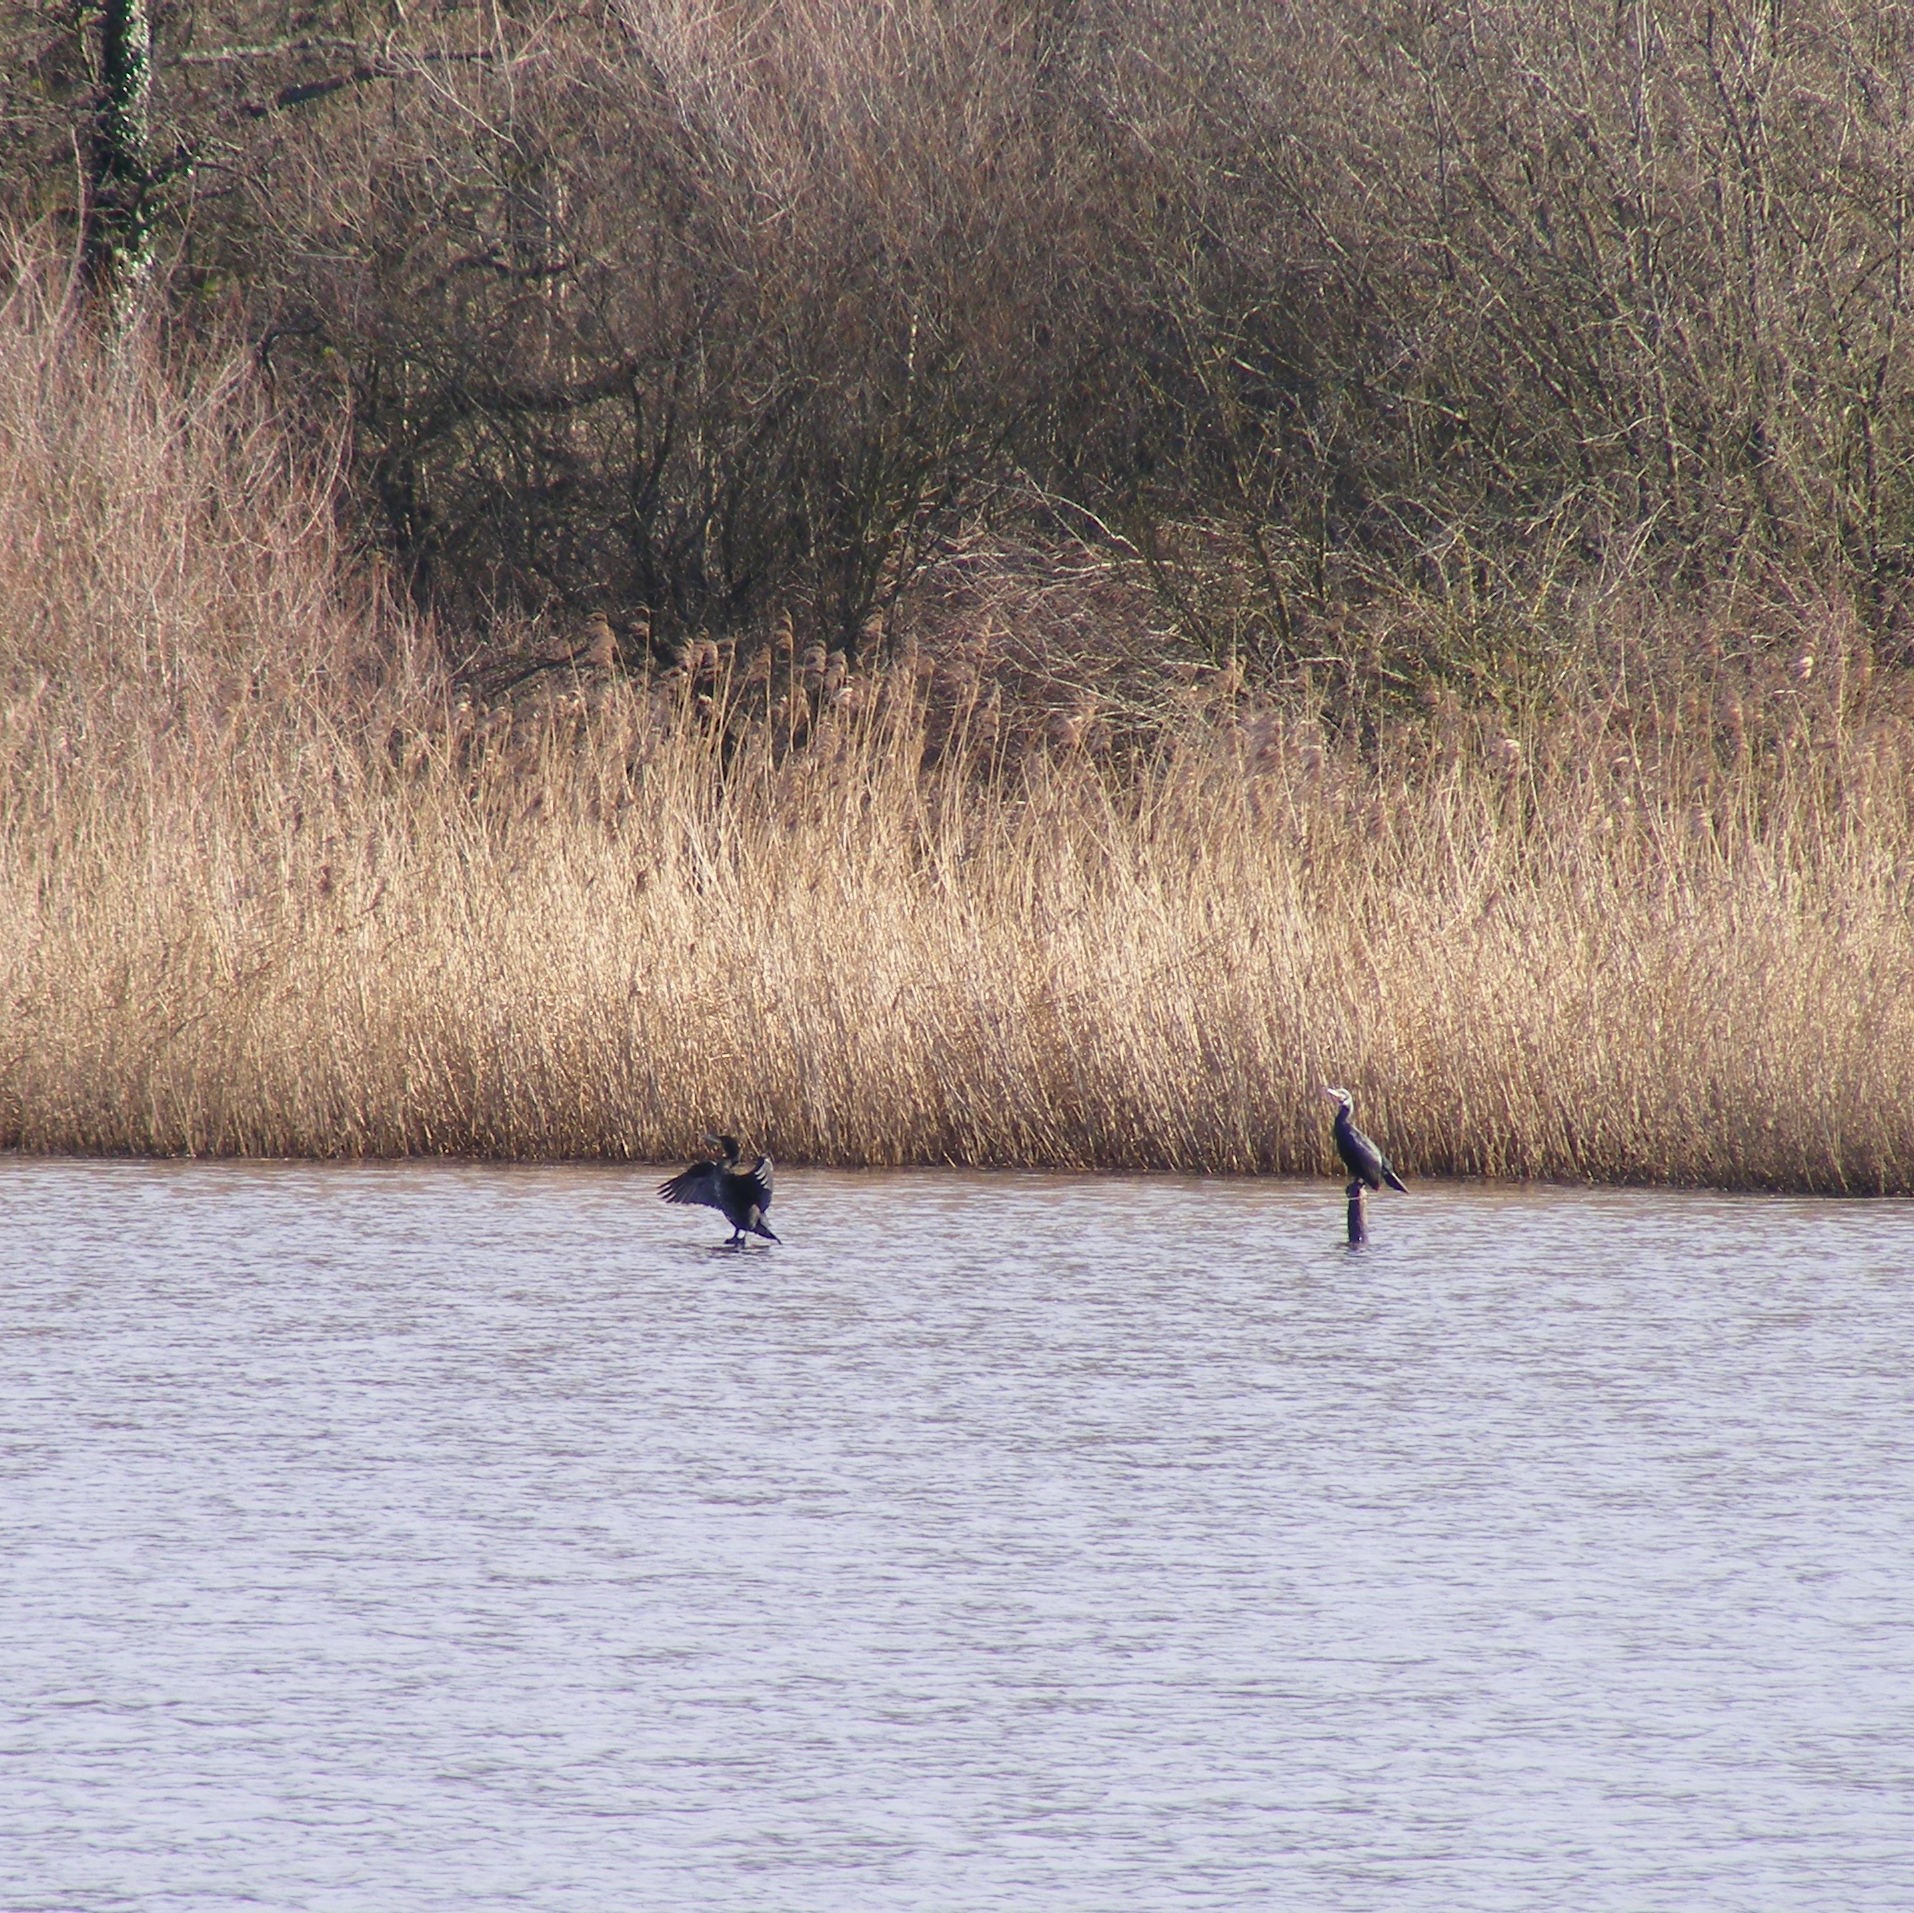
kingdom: Animalia
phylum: Chordata
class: Aves
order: Suliformes
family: Phalacrocoracidae
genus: Phalacrocorax
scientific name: Phalacrocorax carbo
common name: Great cormorant
